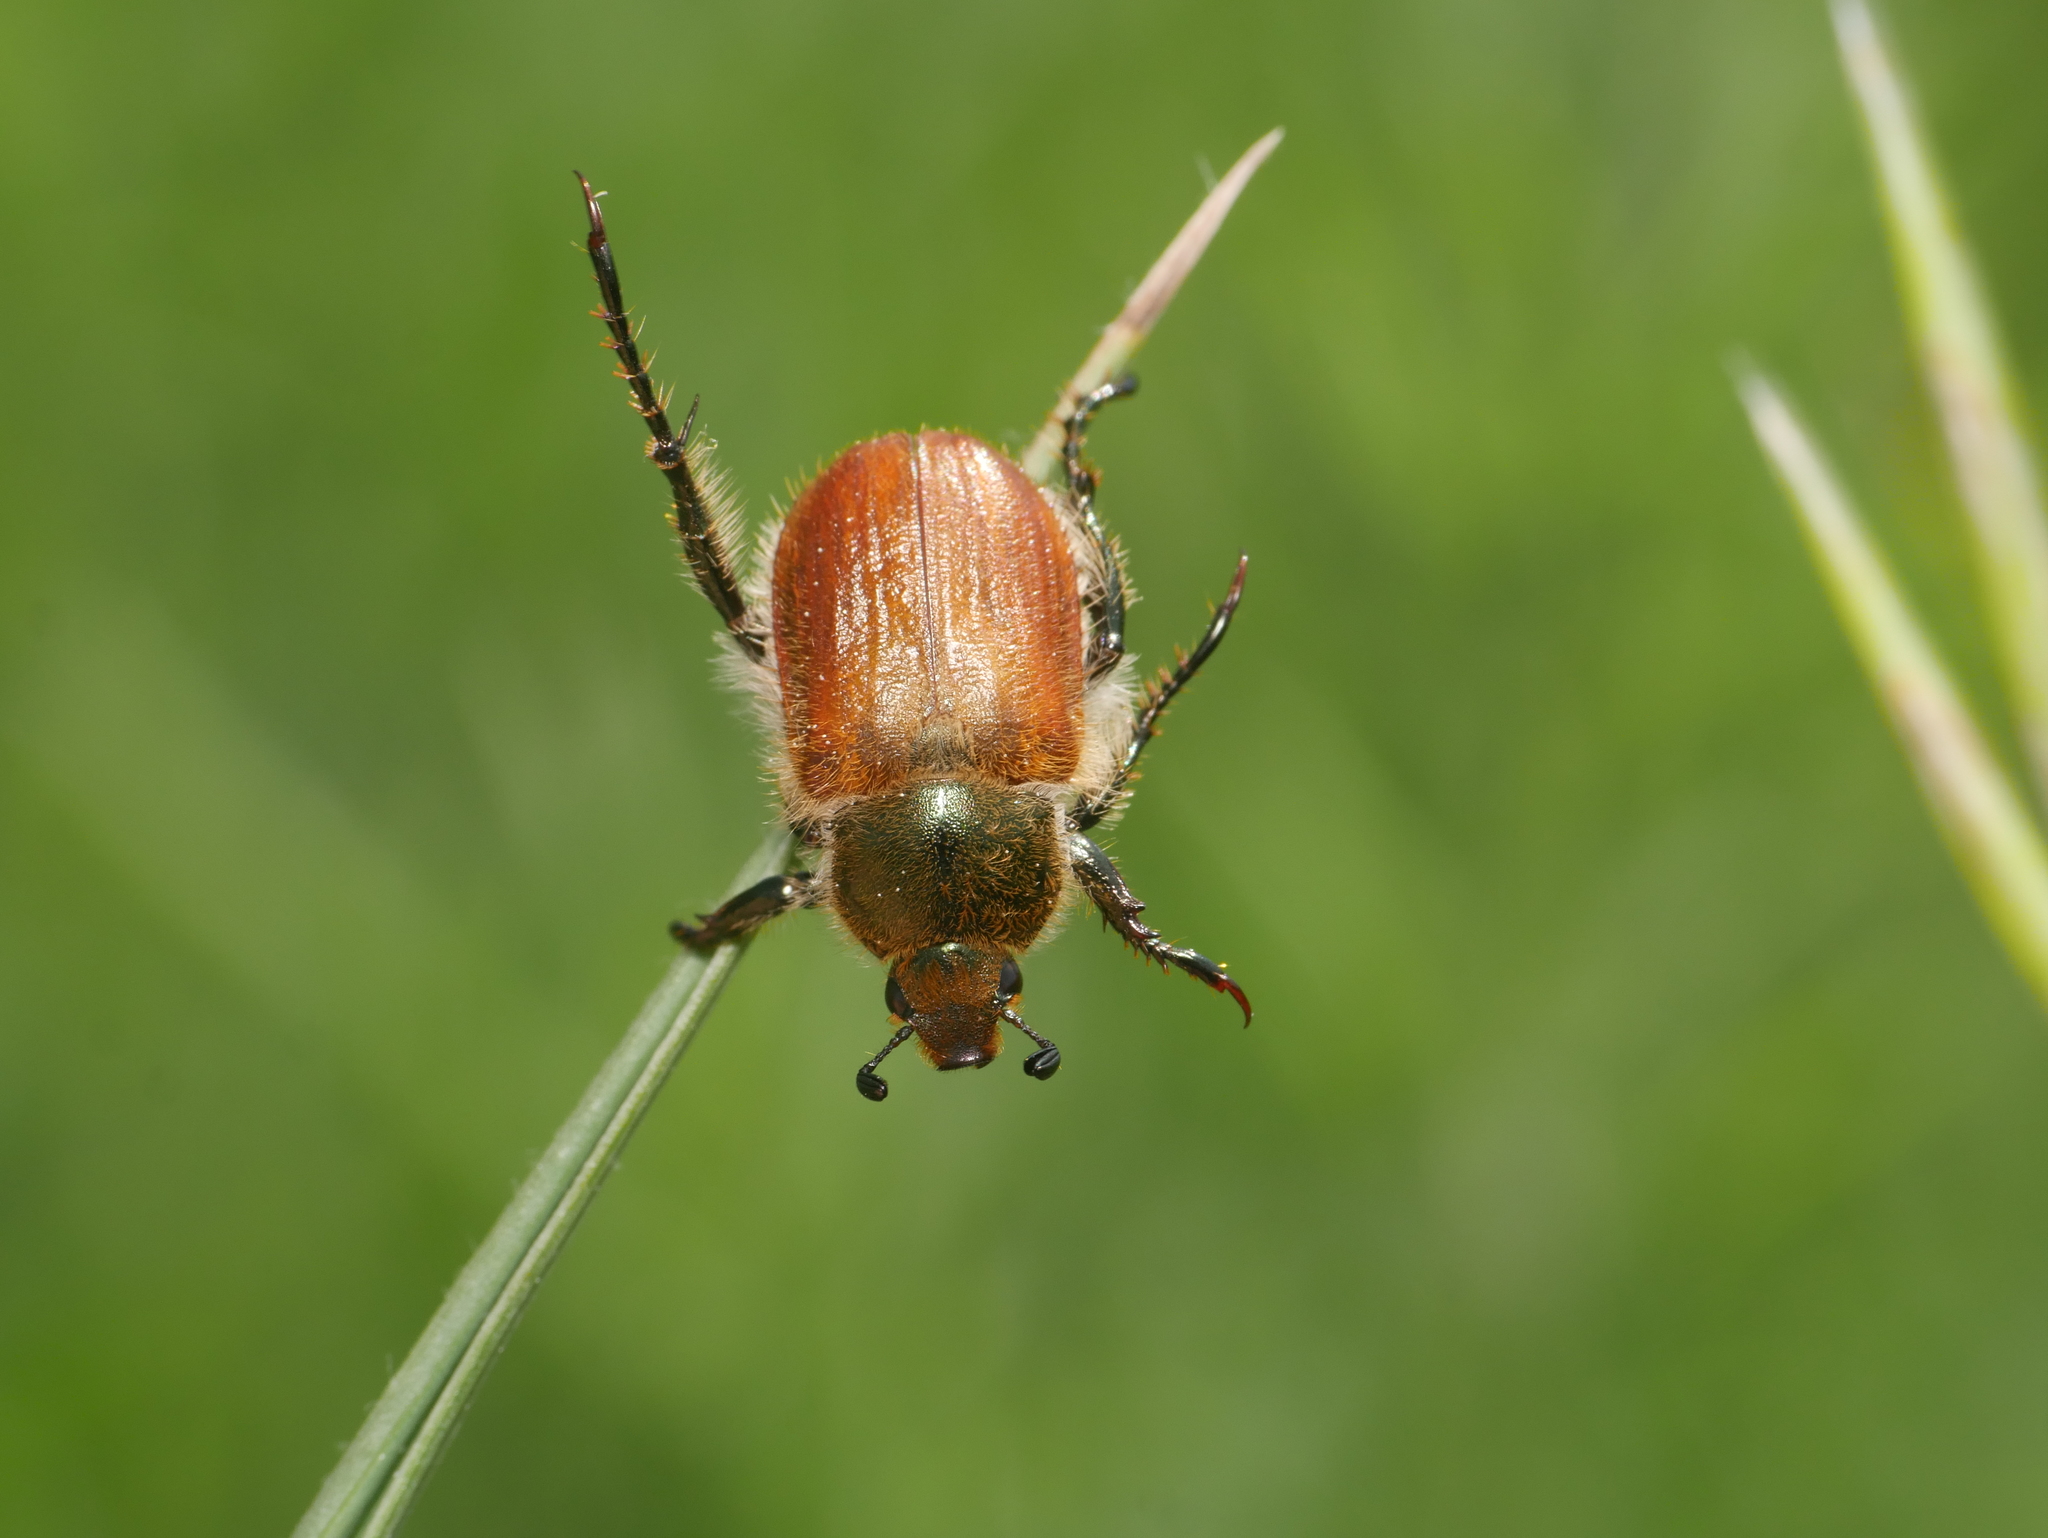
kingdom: Animalia
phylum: Arthropoda
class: Insecta
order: Coleoptera
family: Scarabaeidae
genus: Chaetopteroplia
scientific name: Chaetopteroplia segetum
